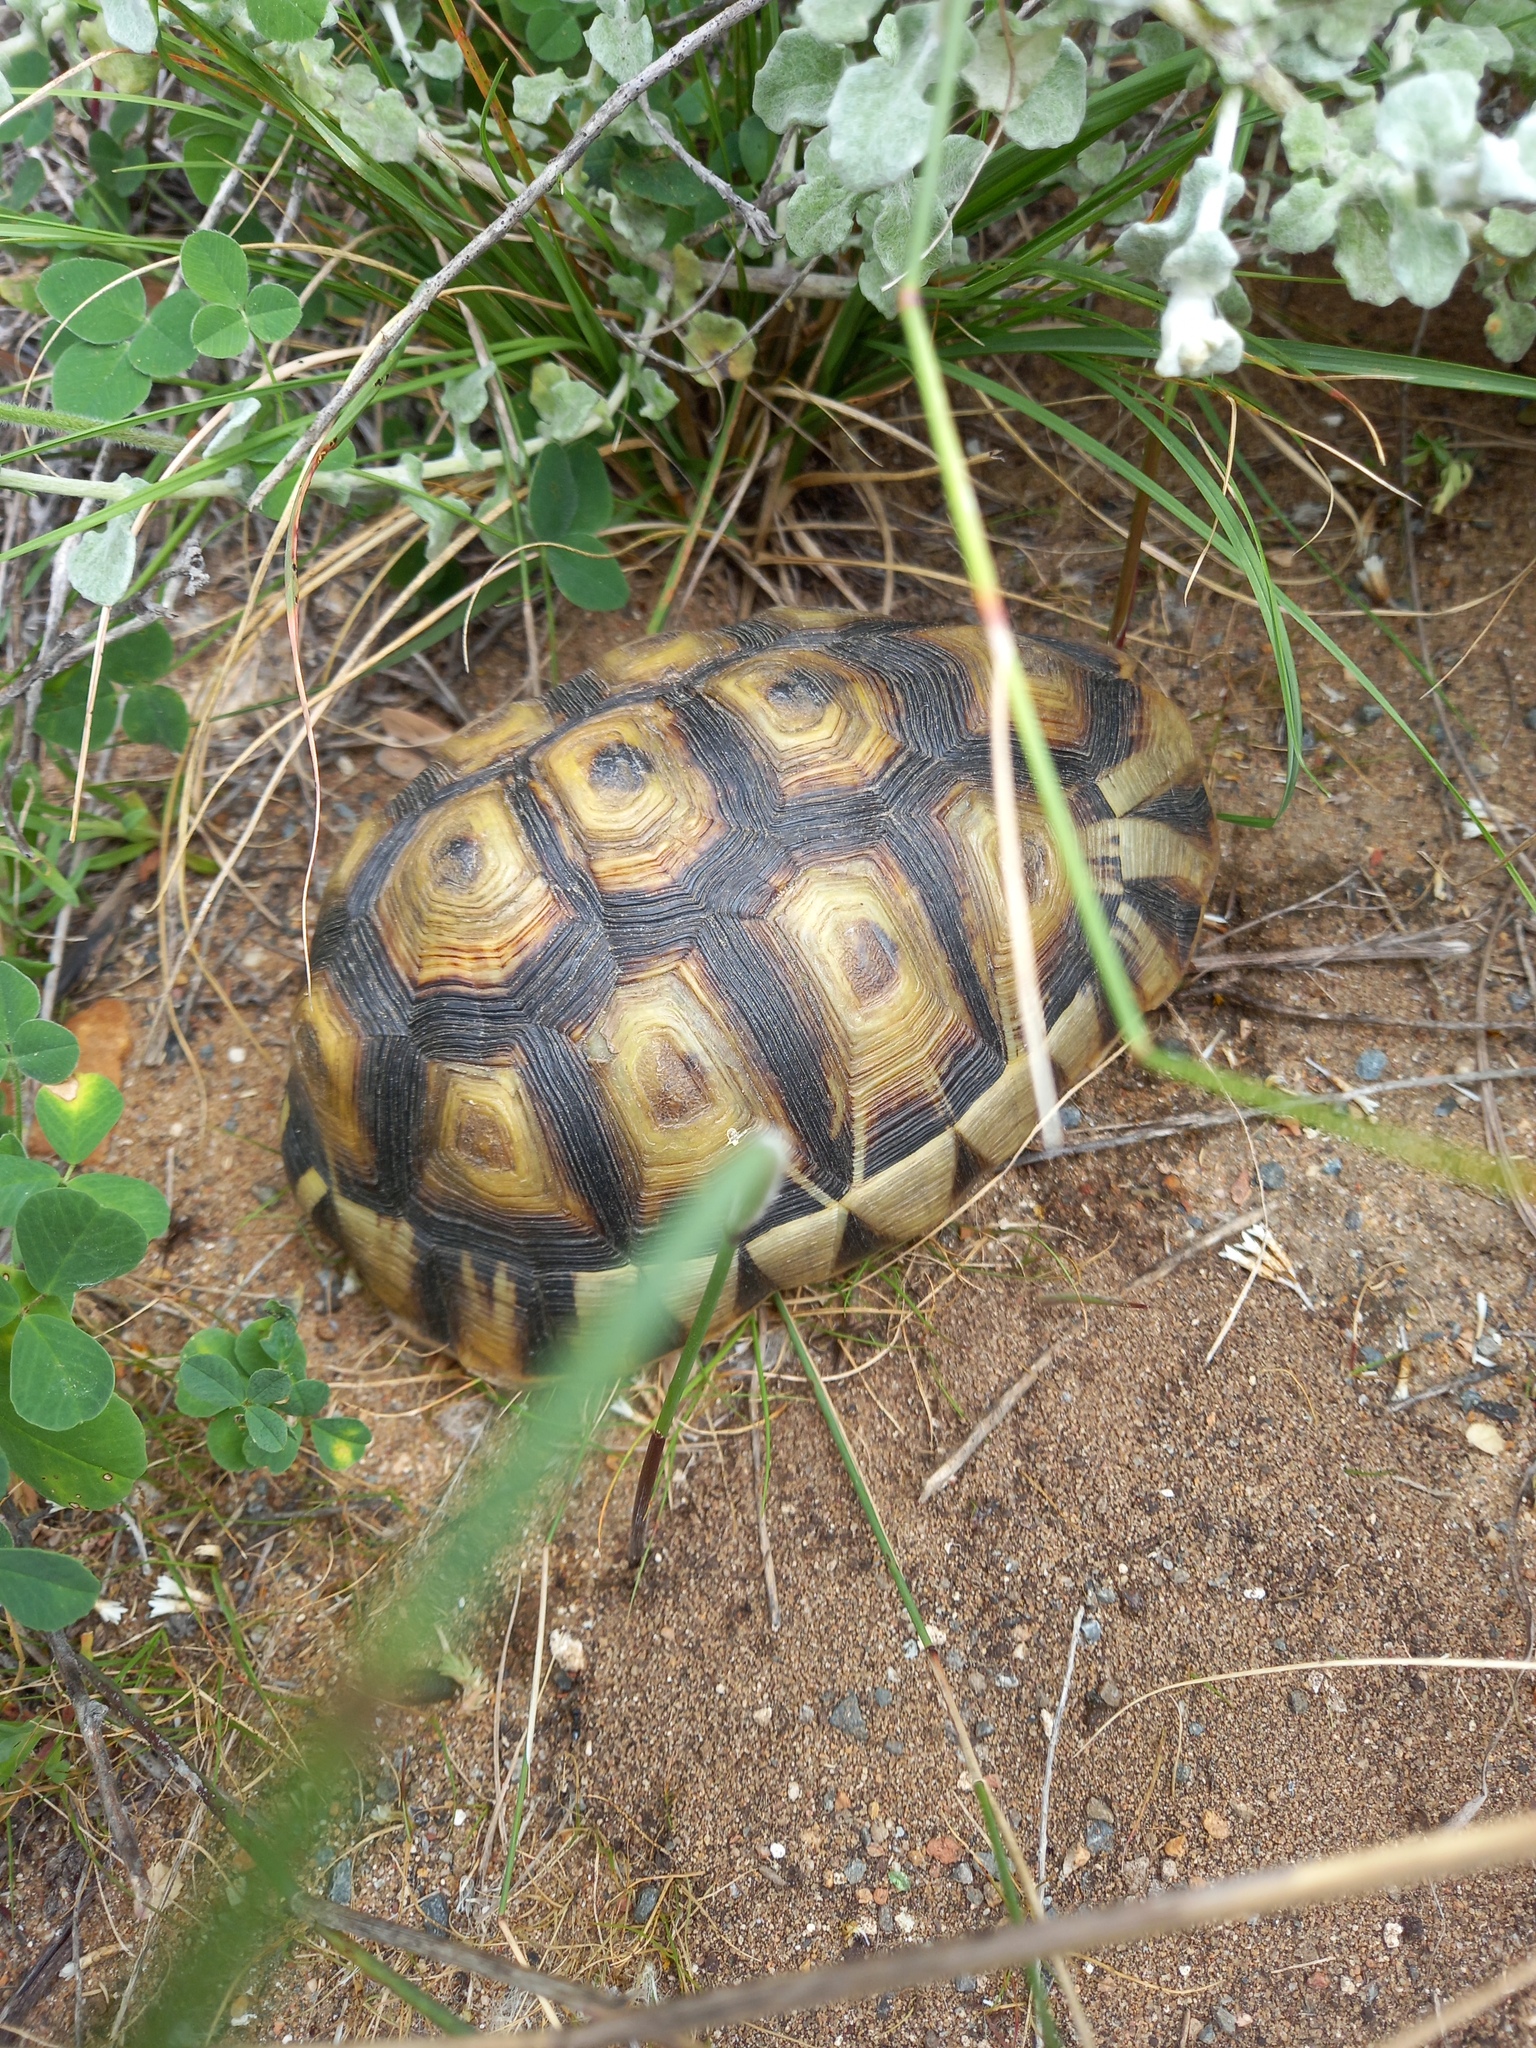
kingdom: Animalia
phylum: Chordata
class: Testudines
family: Testudinidae
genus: Chersina
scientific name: Chersina angulata
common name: South african bowsprit tortoise
